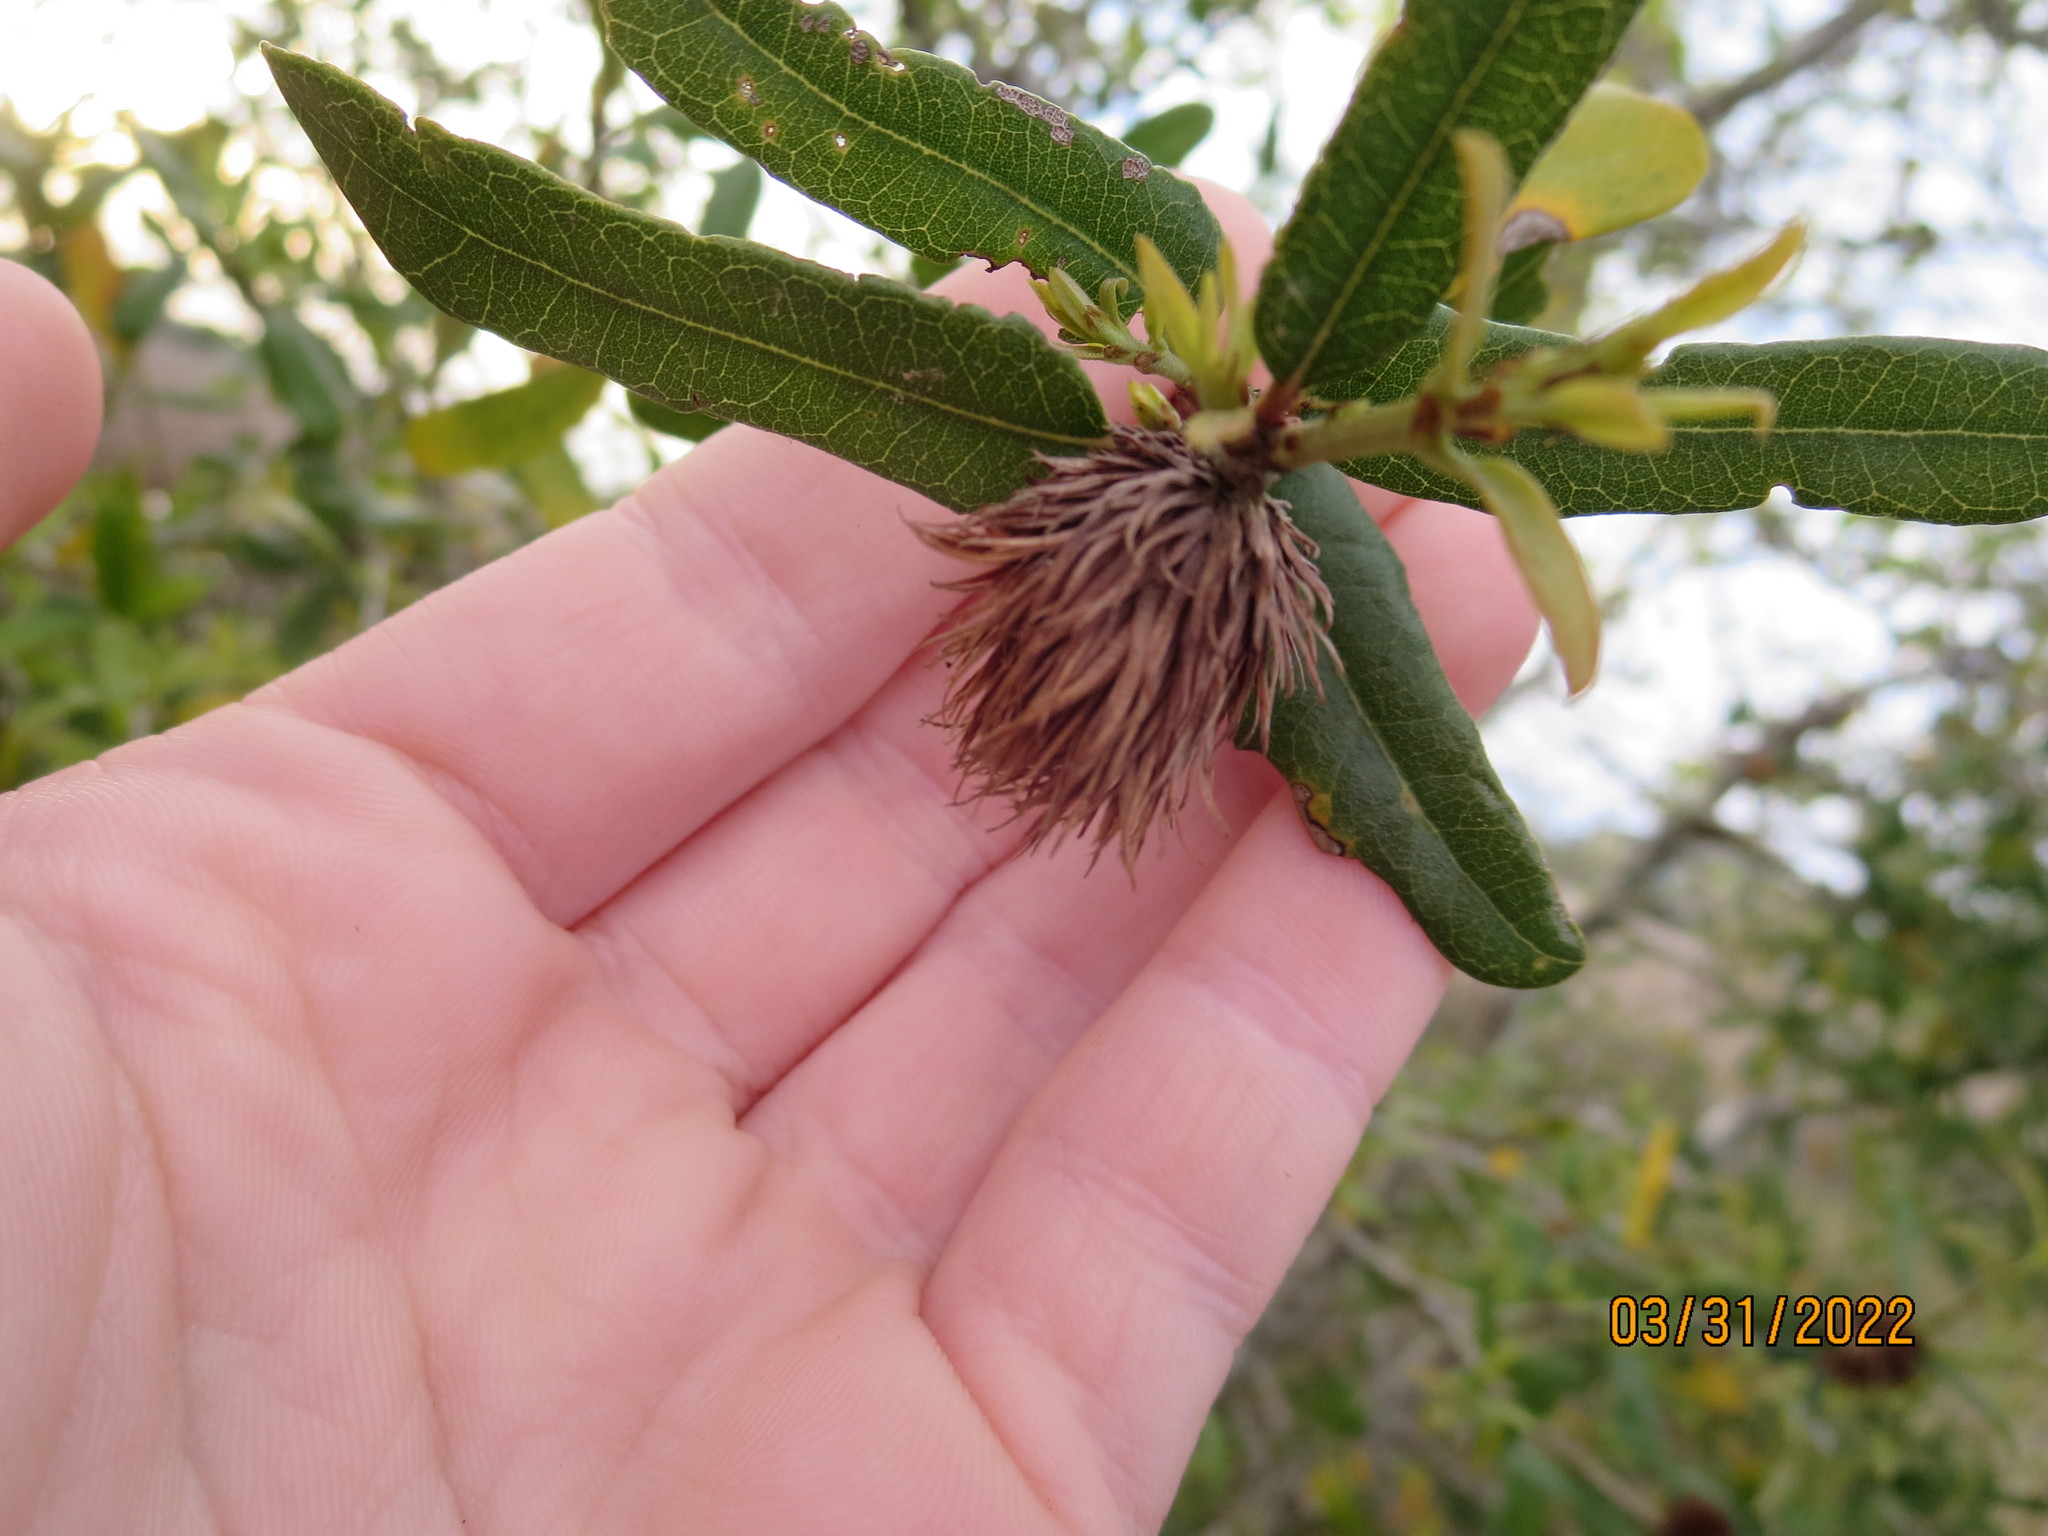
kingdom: Animalia
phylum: Arthropoda
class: Insecta
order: Hymenoptera
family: Cynipidae
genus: Andricus
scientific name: Andricus quercusfoliatus
